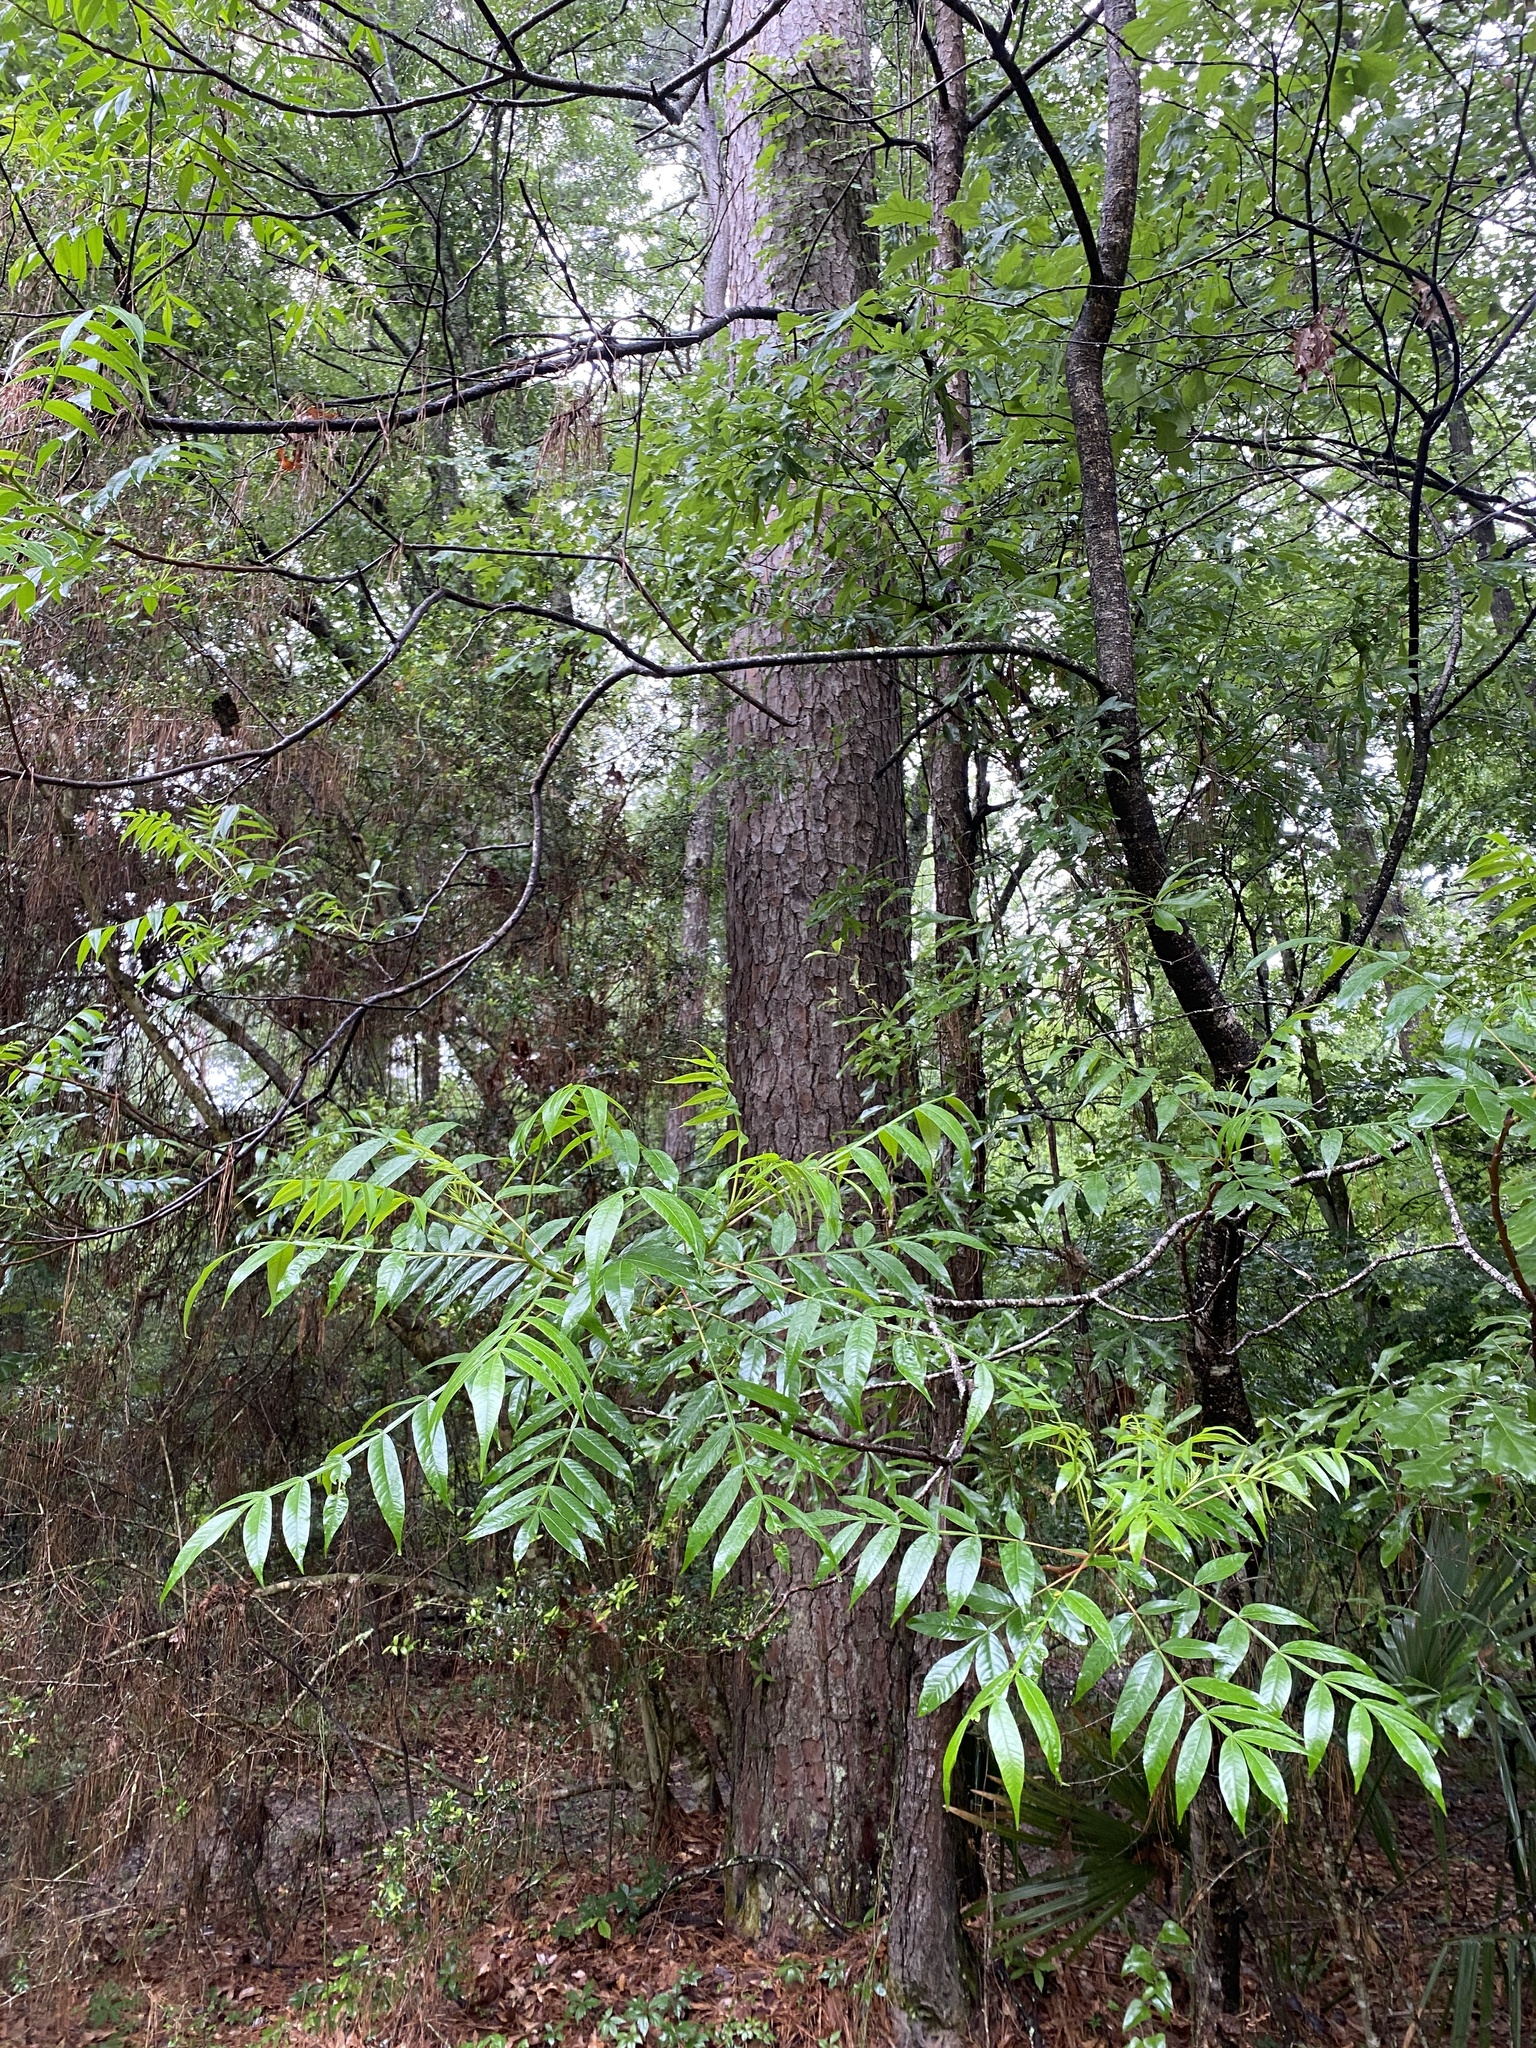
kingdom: Plantae
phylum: Tracheophyta
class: Magnoliopsida
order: Sapindales
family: Anacardiaceae
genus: Rhus
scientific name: Rhus copallina
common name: Shining sumac
